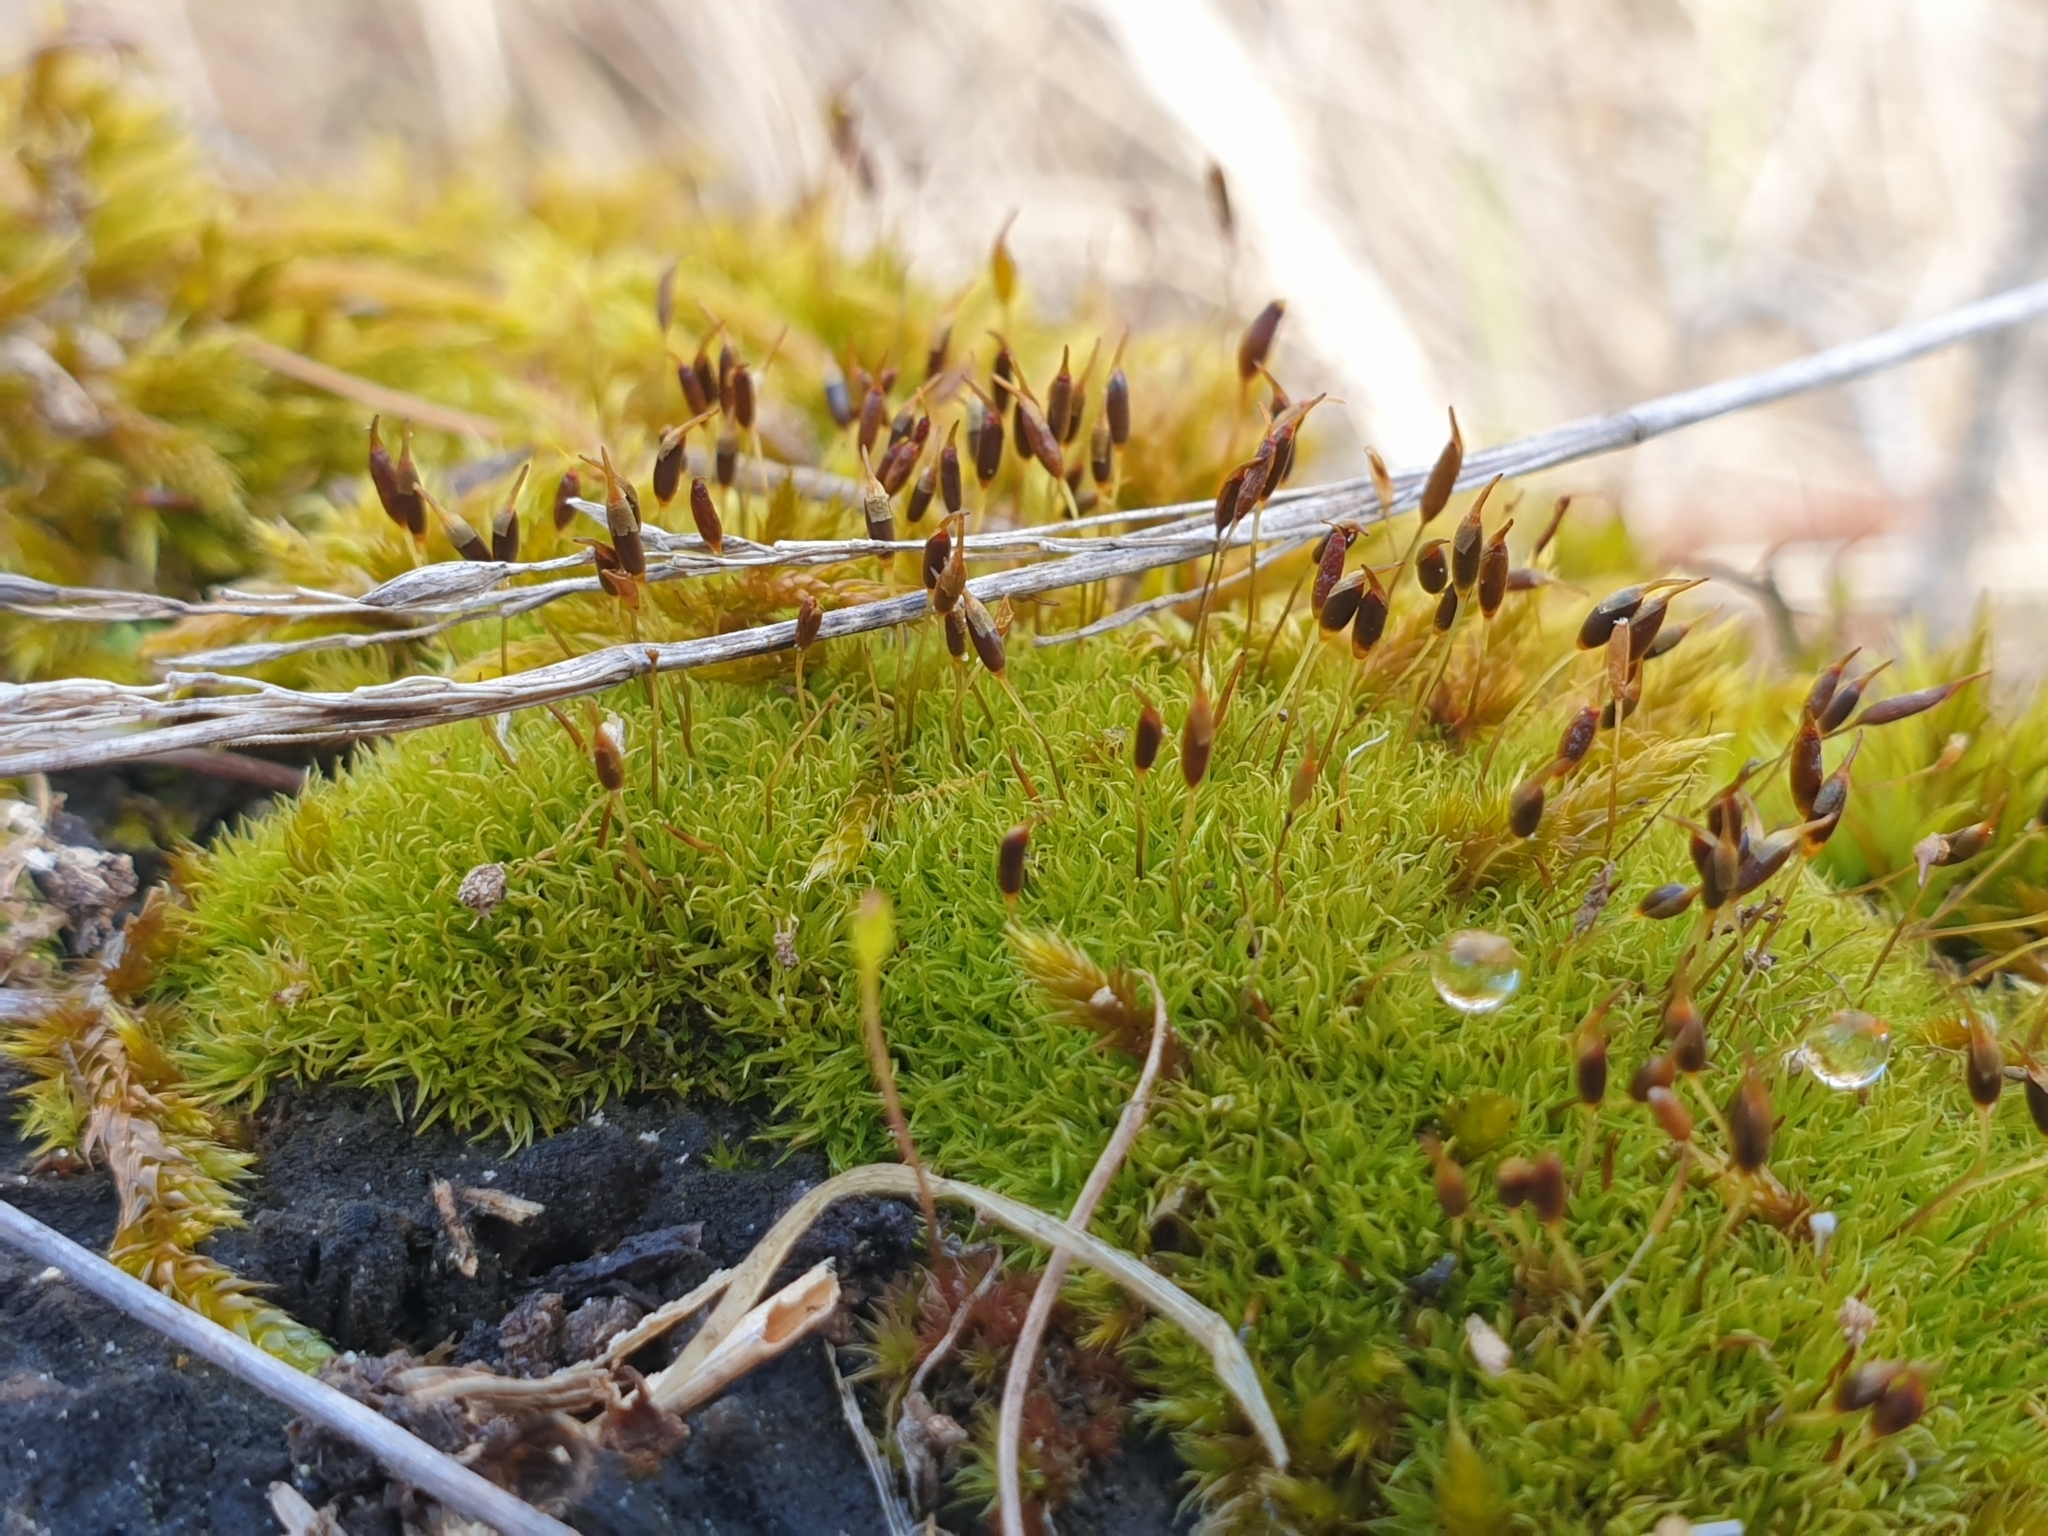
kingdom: Plantae
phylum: Bryophyta
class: Bryopsida
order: Dicranales
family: Rhabdoweisiaceae
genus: Dicranoweisia
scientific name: Dicranoweisia cirrata
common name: Common pincushion
